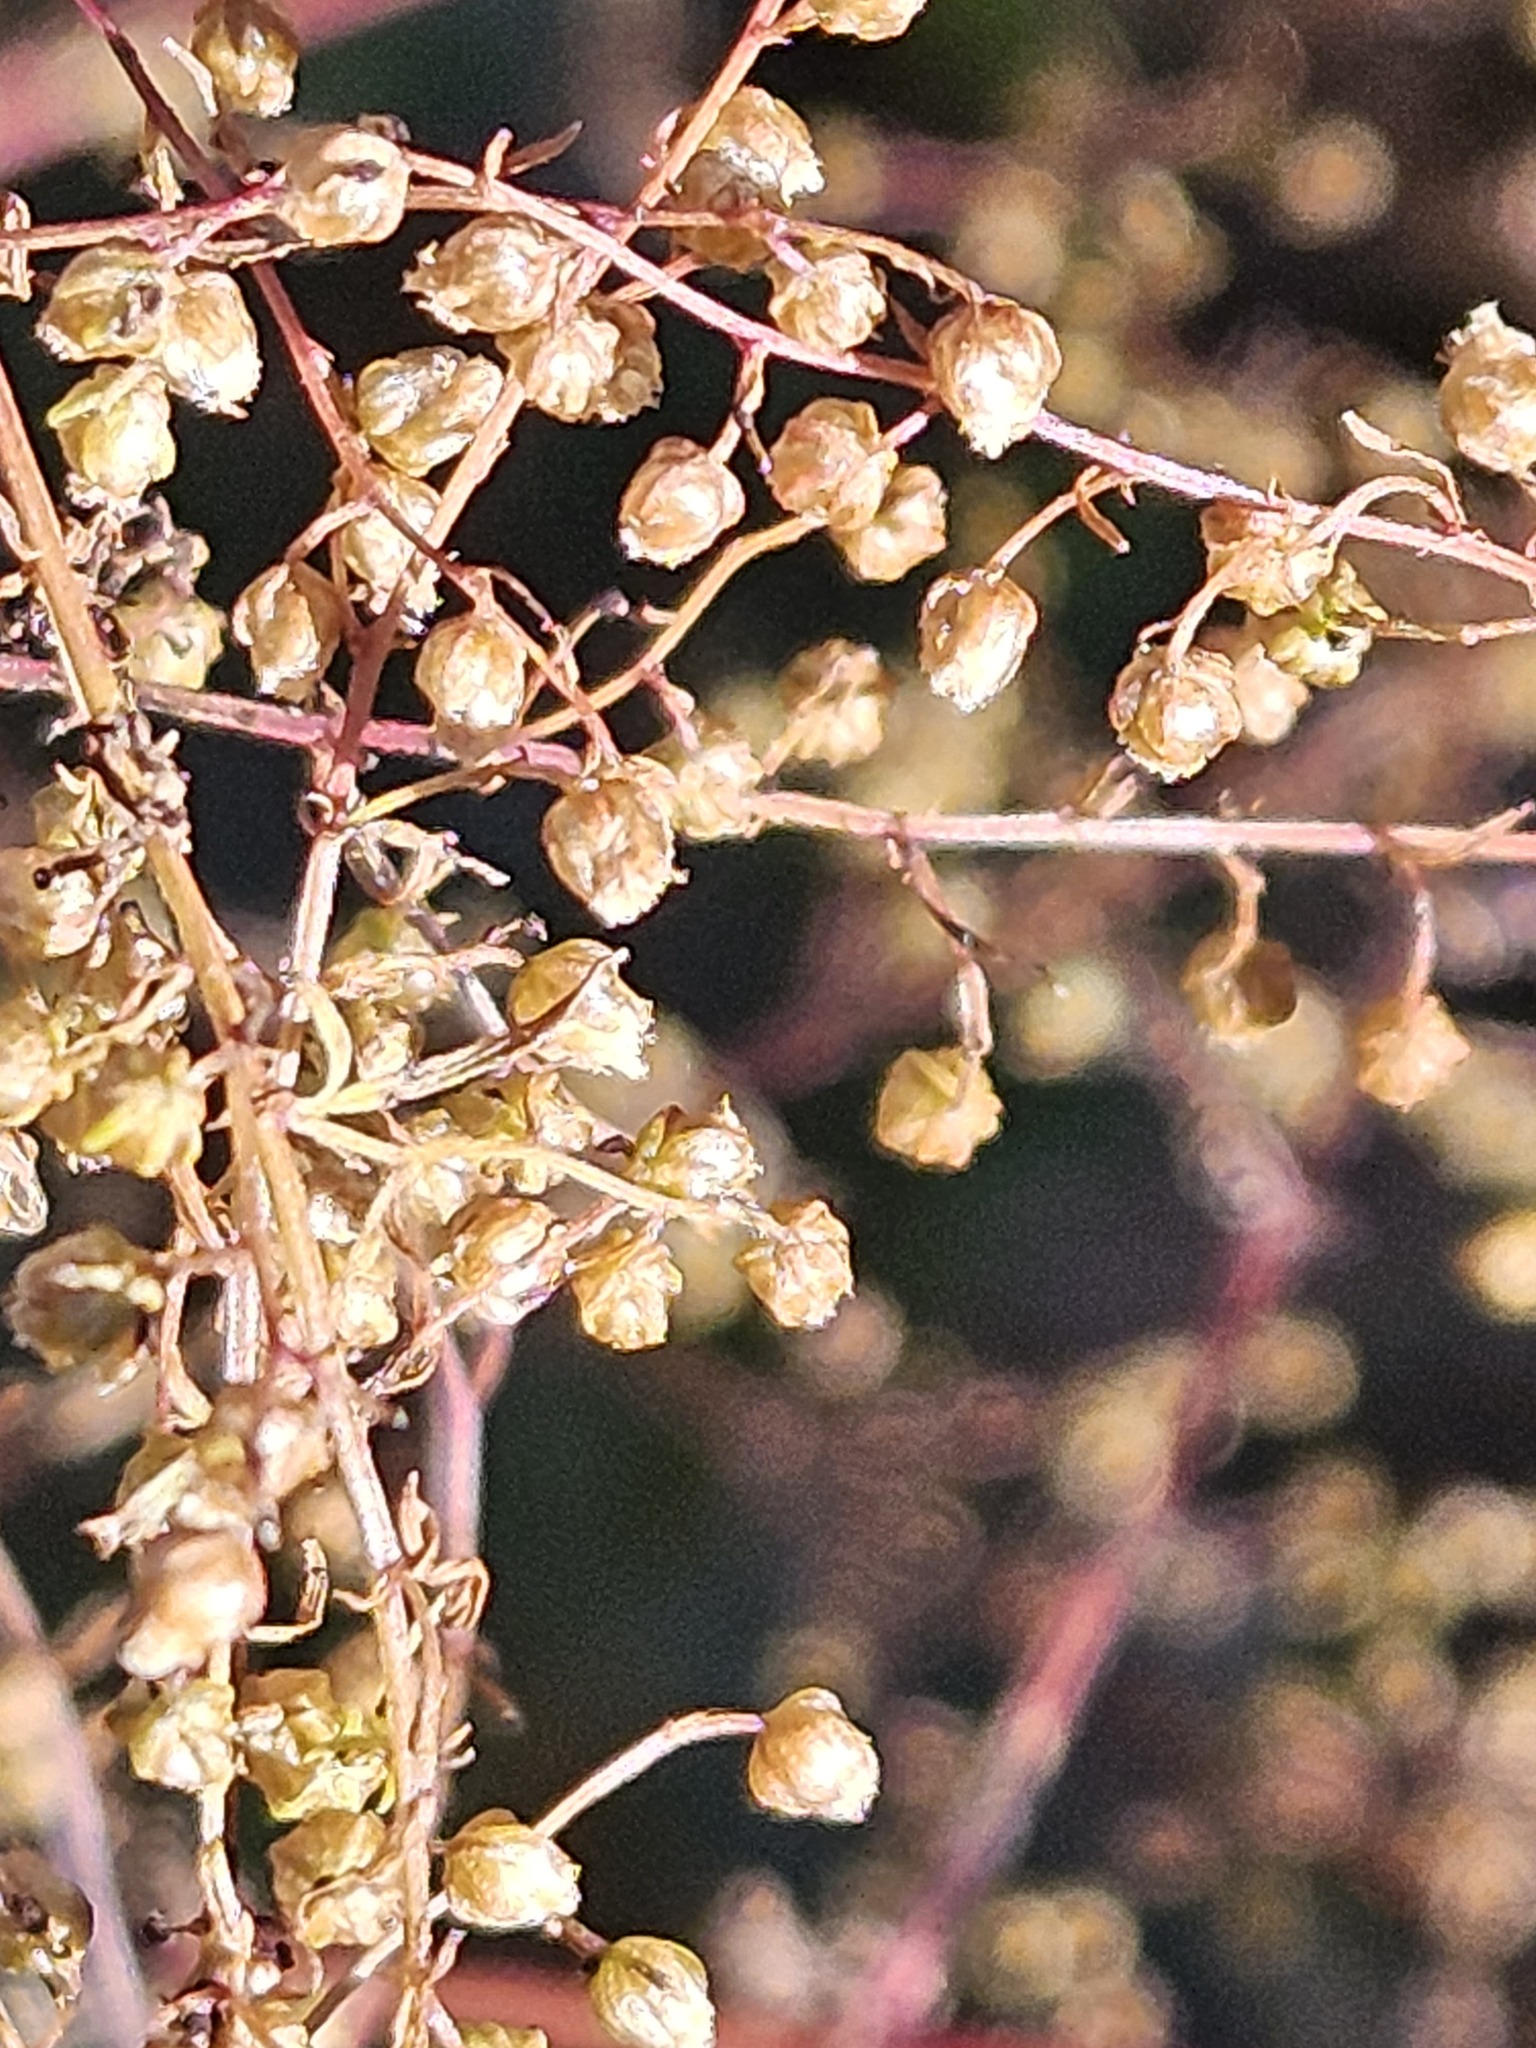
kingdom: Plantae
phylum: Tracheophyta
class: Magnoliopsida
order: Asterales
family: Asteraceae
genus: Artemisia
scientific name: Artemisia annua
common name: Sweet sagewort
